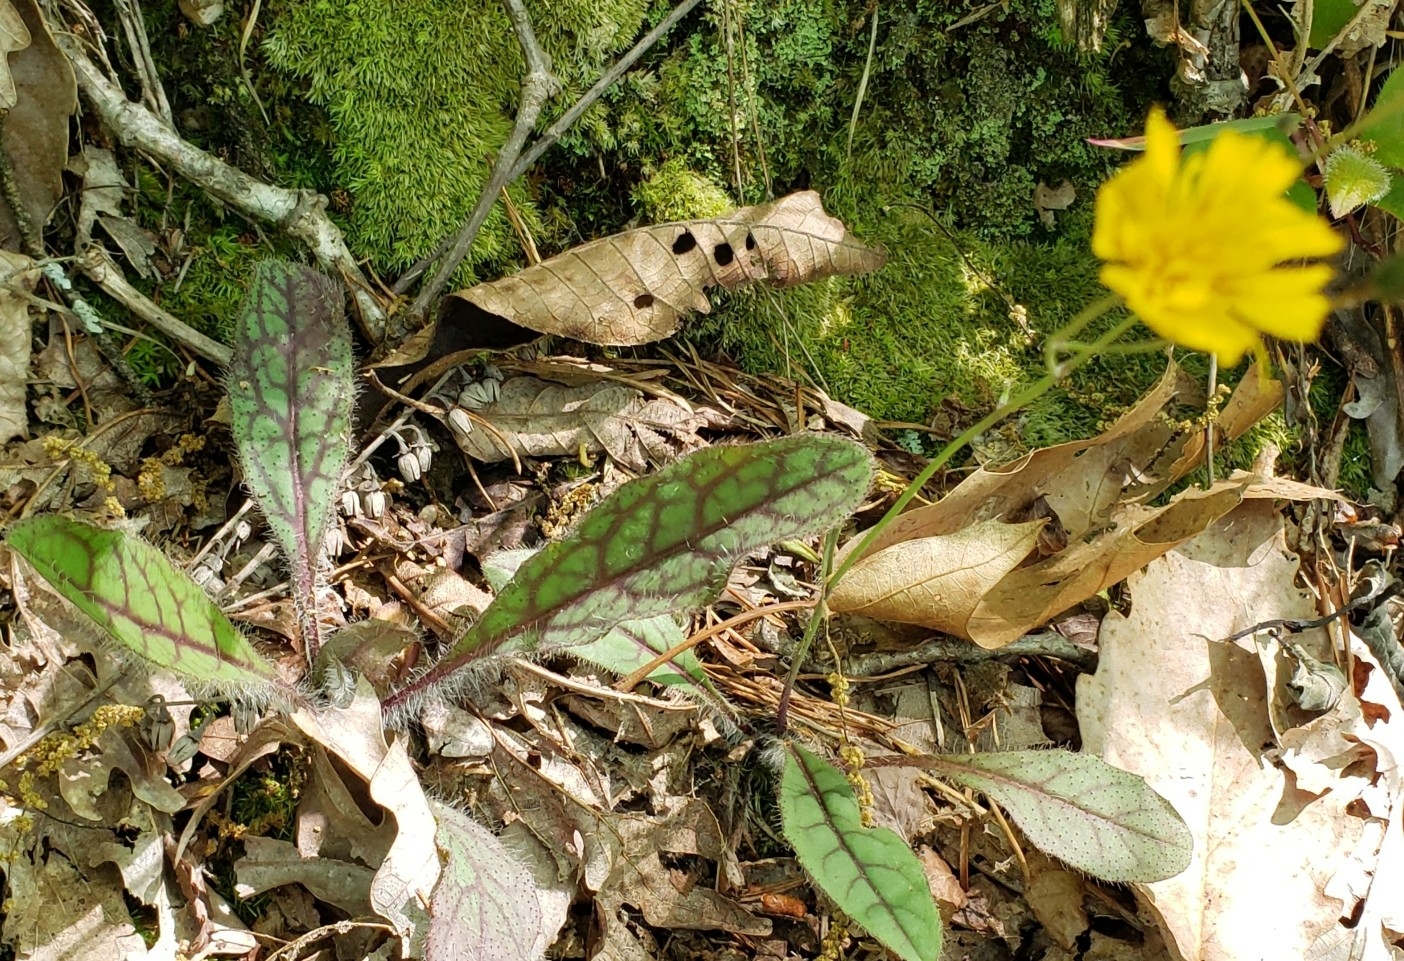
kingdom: Plantae
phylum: Tracheophyta
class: Magnoliopsida
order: Asterales
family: Asteraceae
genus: Hieracium
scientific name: Hieracium venosum
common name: Rattlesnake hawkweed
